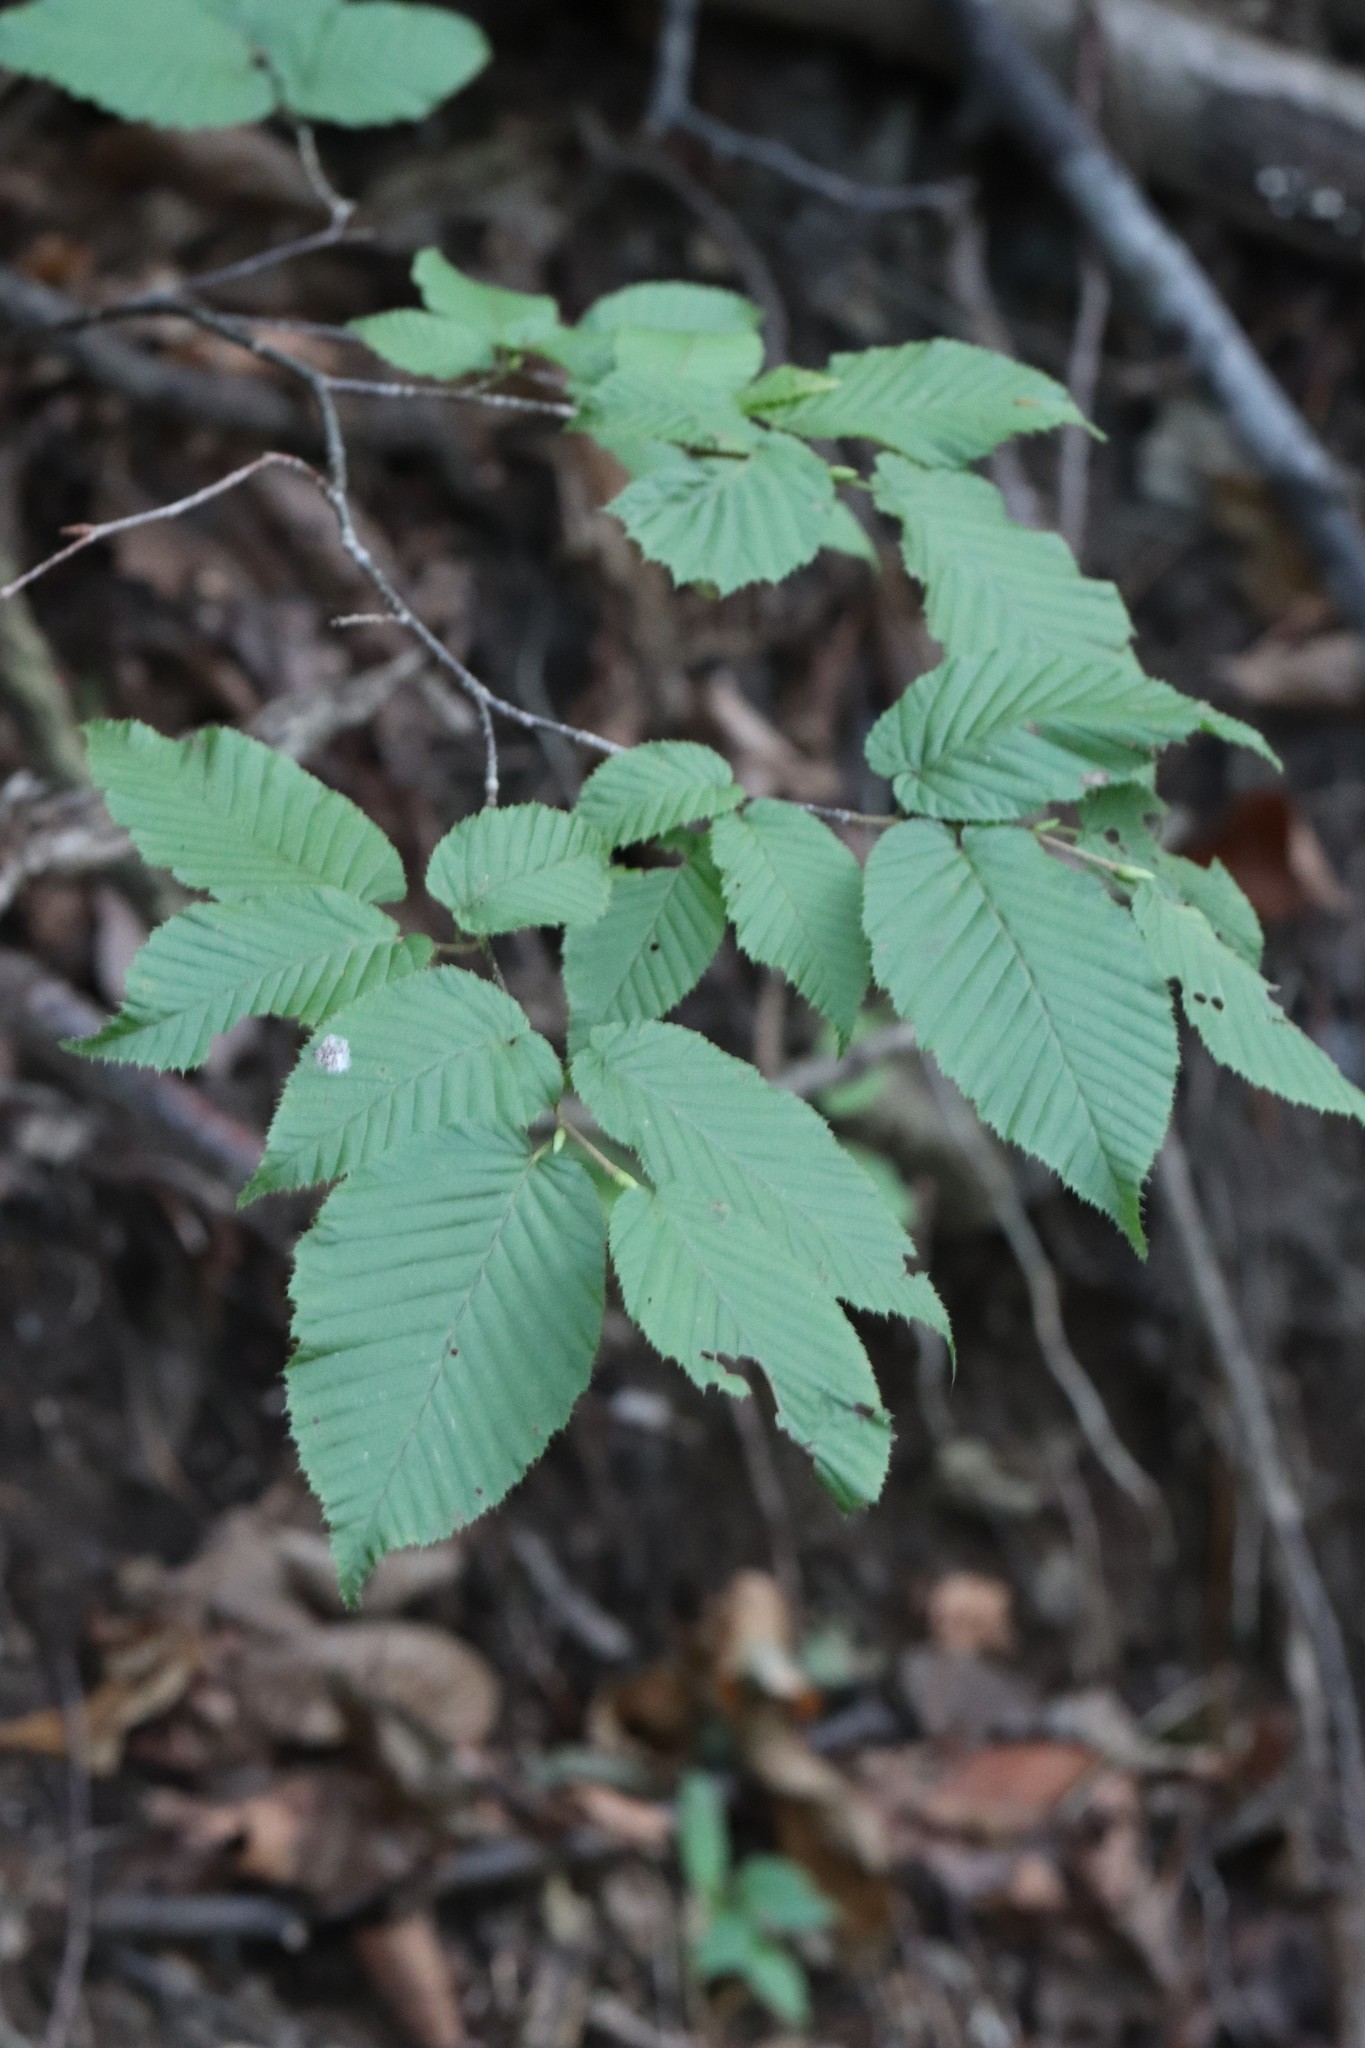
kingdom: Plantae
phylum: Tracheophyta
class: Magnoliopsida
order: Fagales
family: Betulaceae
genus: Carpinus
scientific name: Carpinus cordata
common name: Sawa hornbeam
